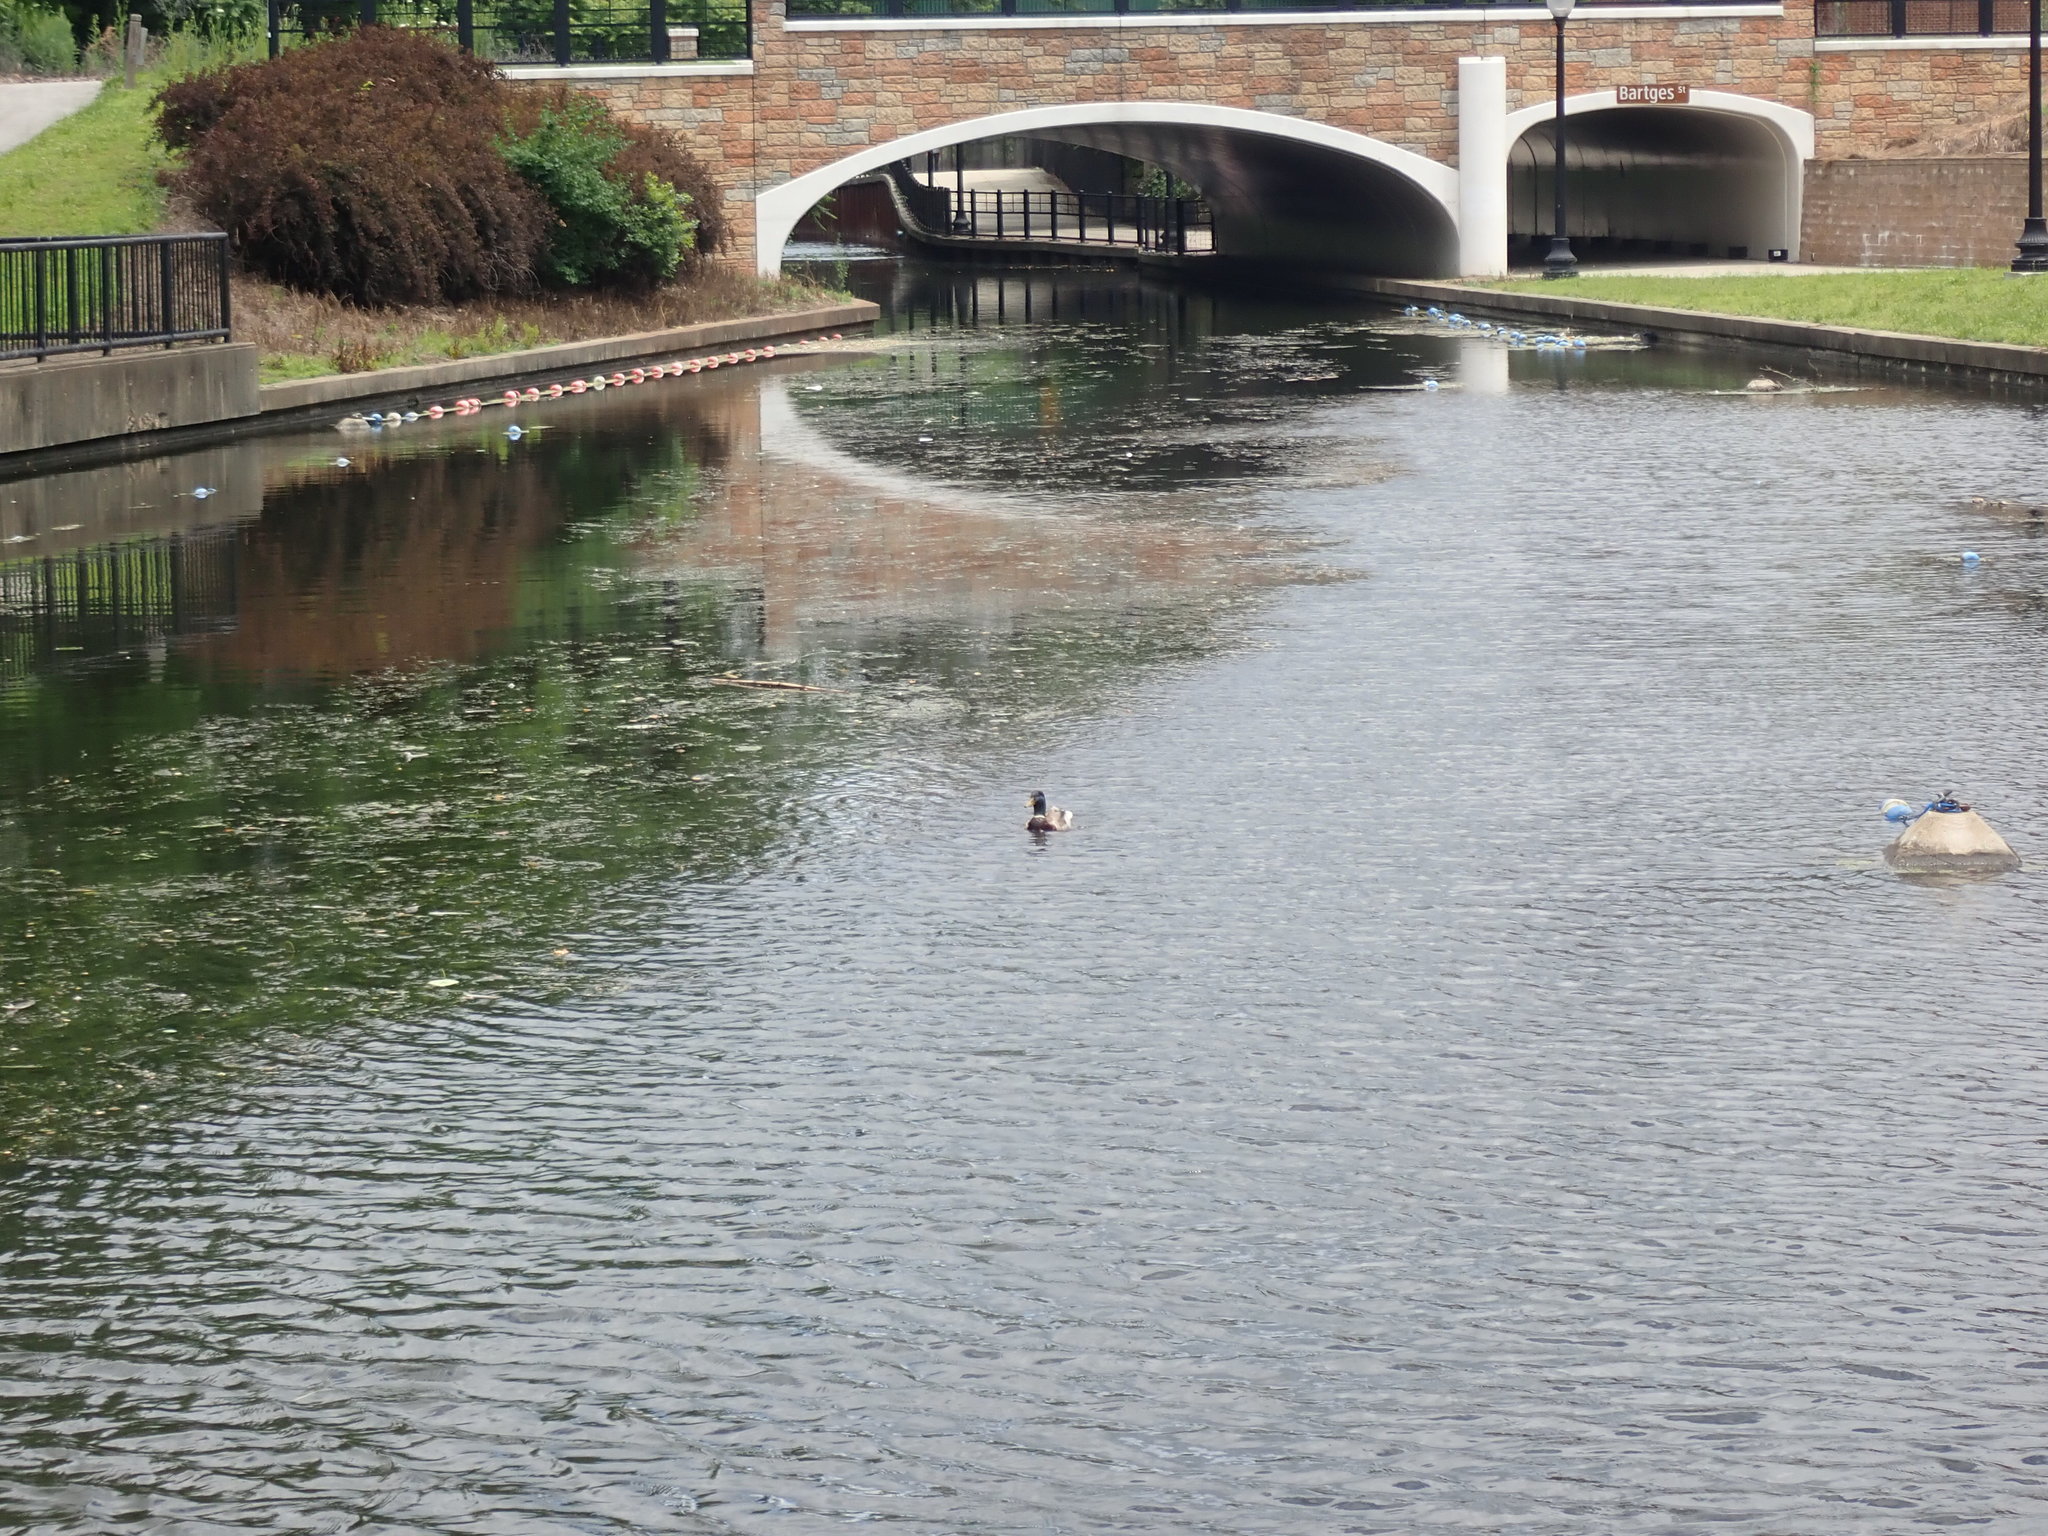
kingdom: Animalia
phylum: Chordata
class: Aves
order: Anseriformes
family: Anatidae
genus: Anas
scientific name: Anas platyrhynchos
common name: Mallard
